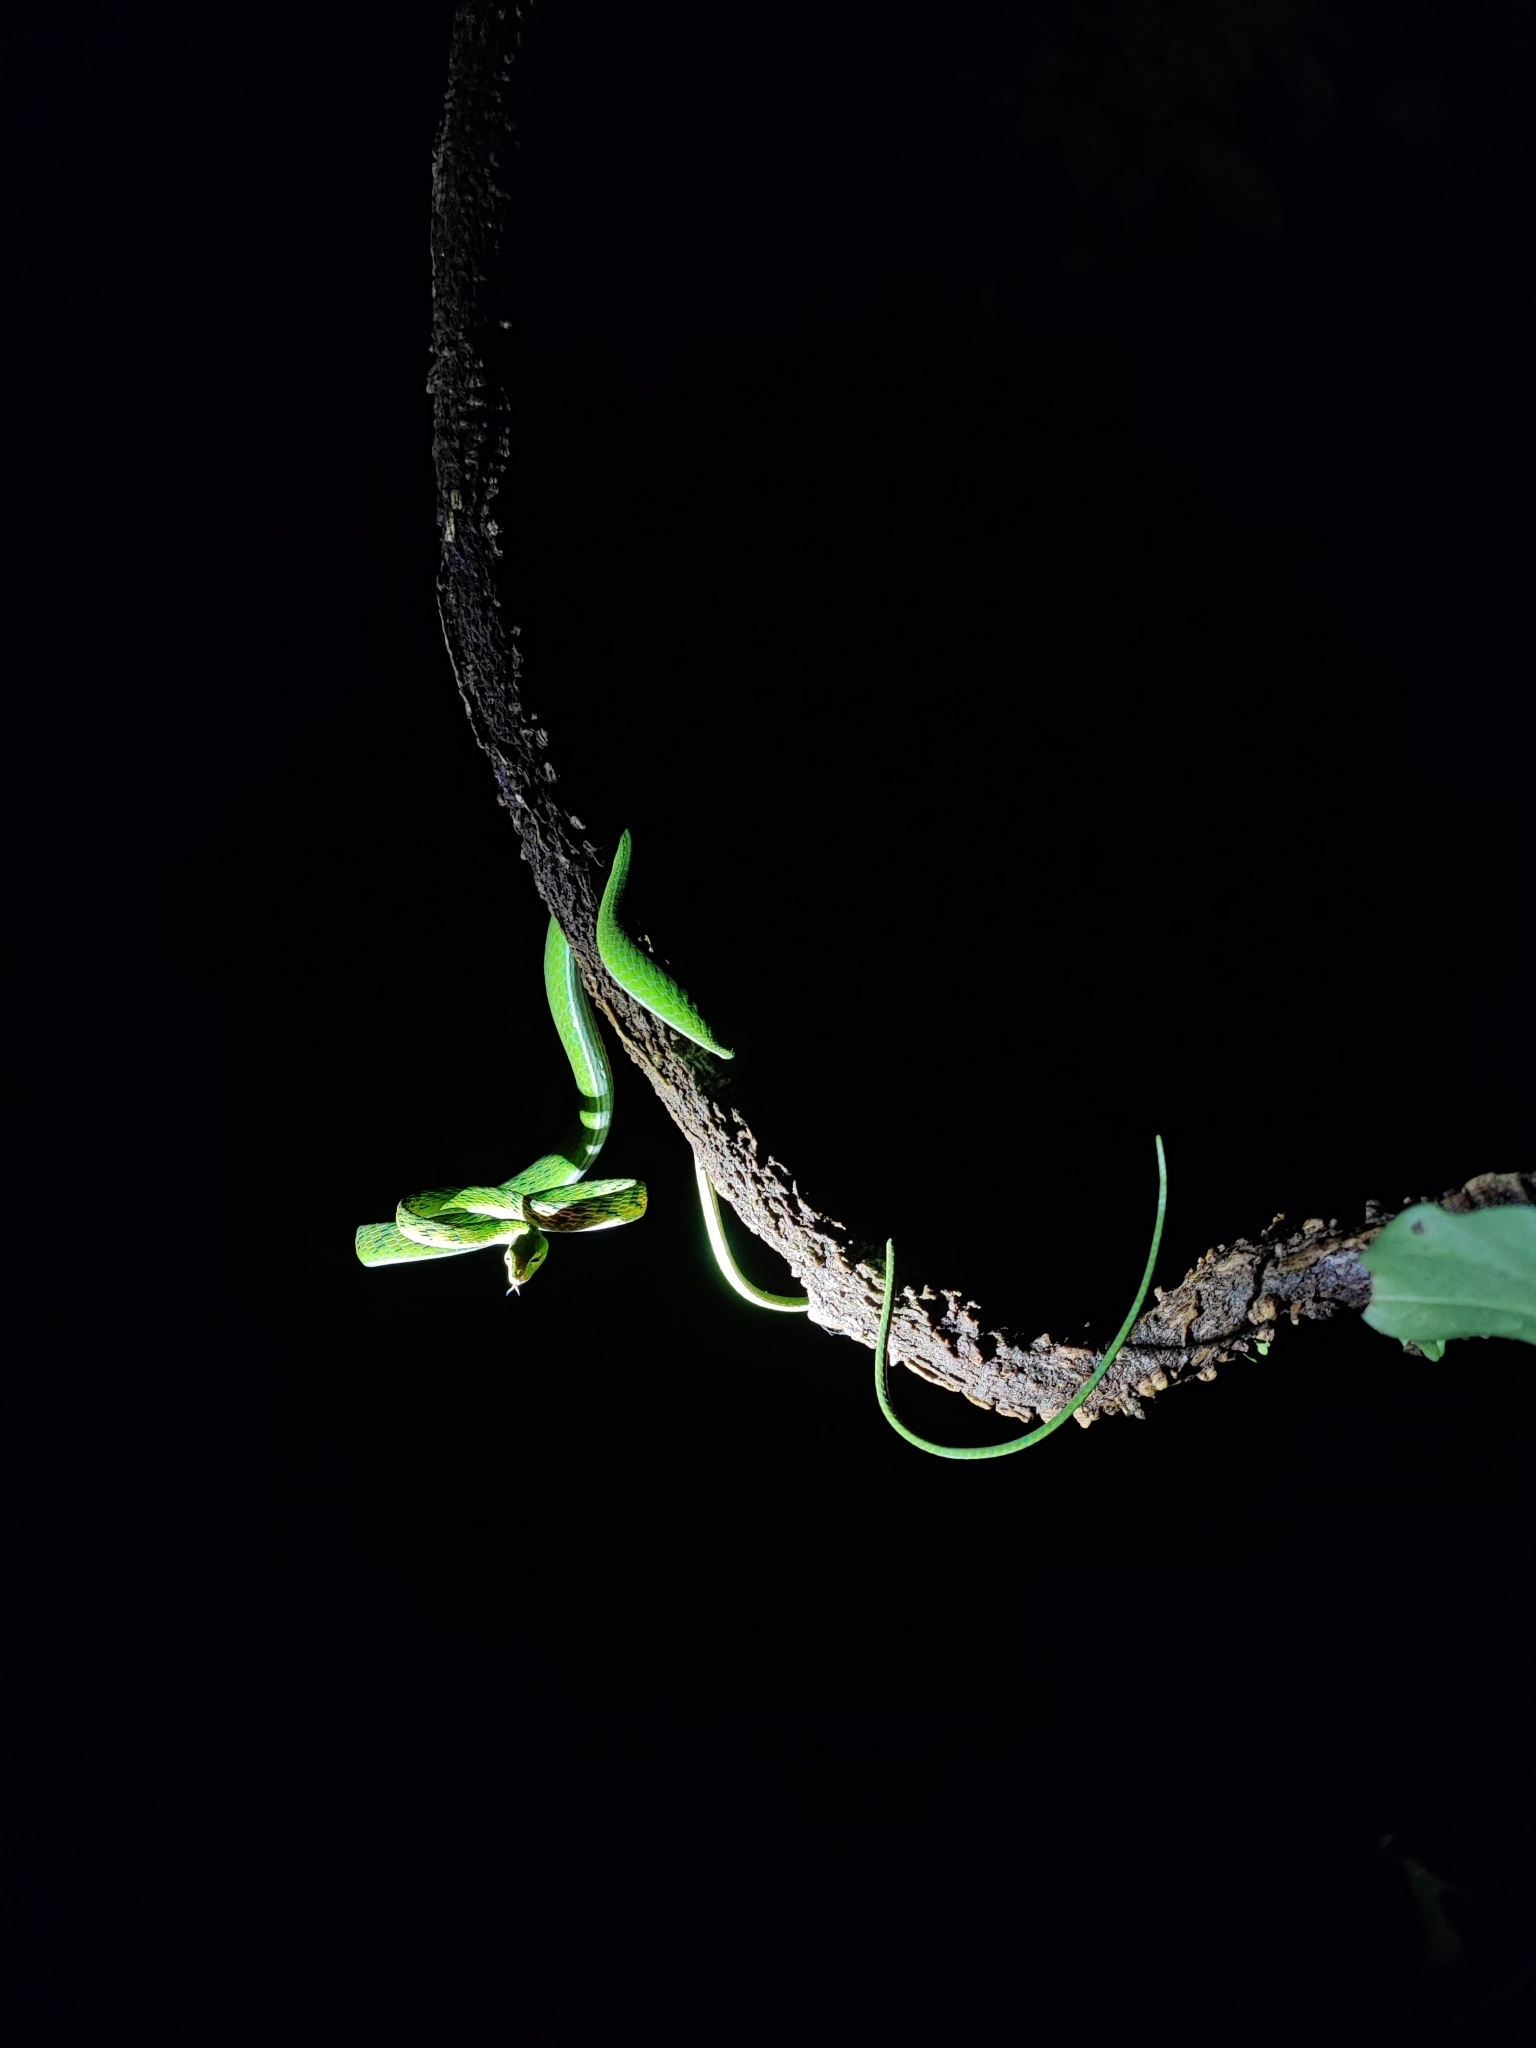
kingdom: Animalia
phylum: Chordata
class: Squamata
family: Colubridae
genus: Ahaetulla
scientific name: Ahaetulla mycterizans
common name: Malayan whip snake
